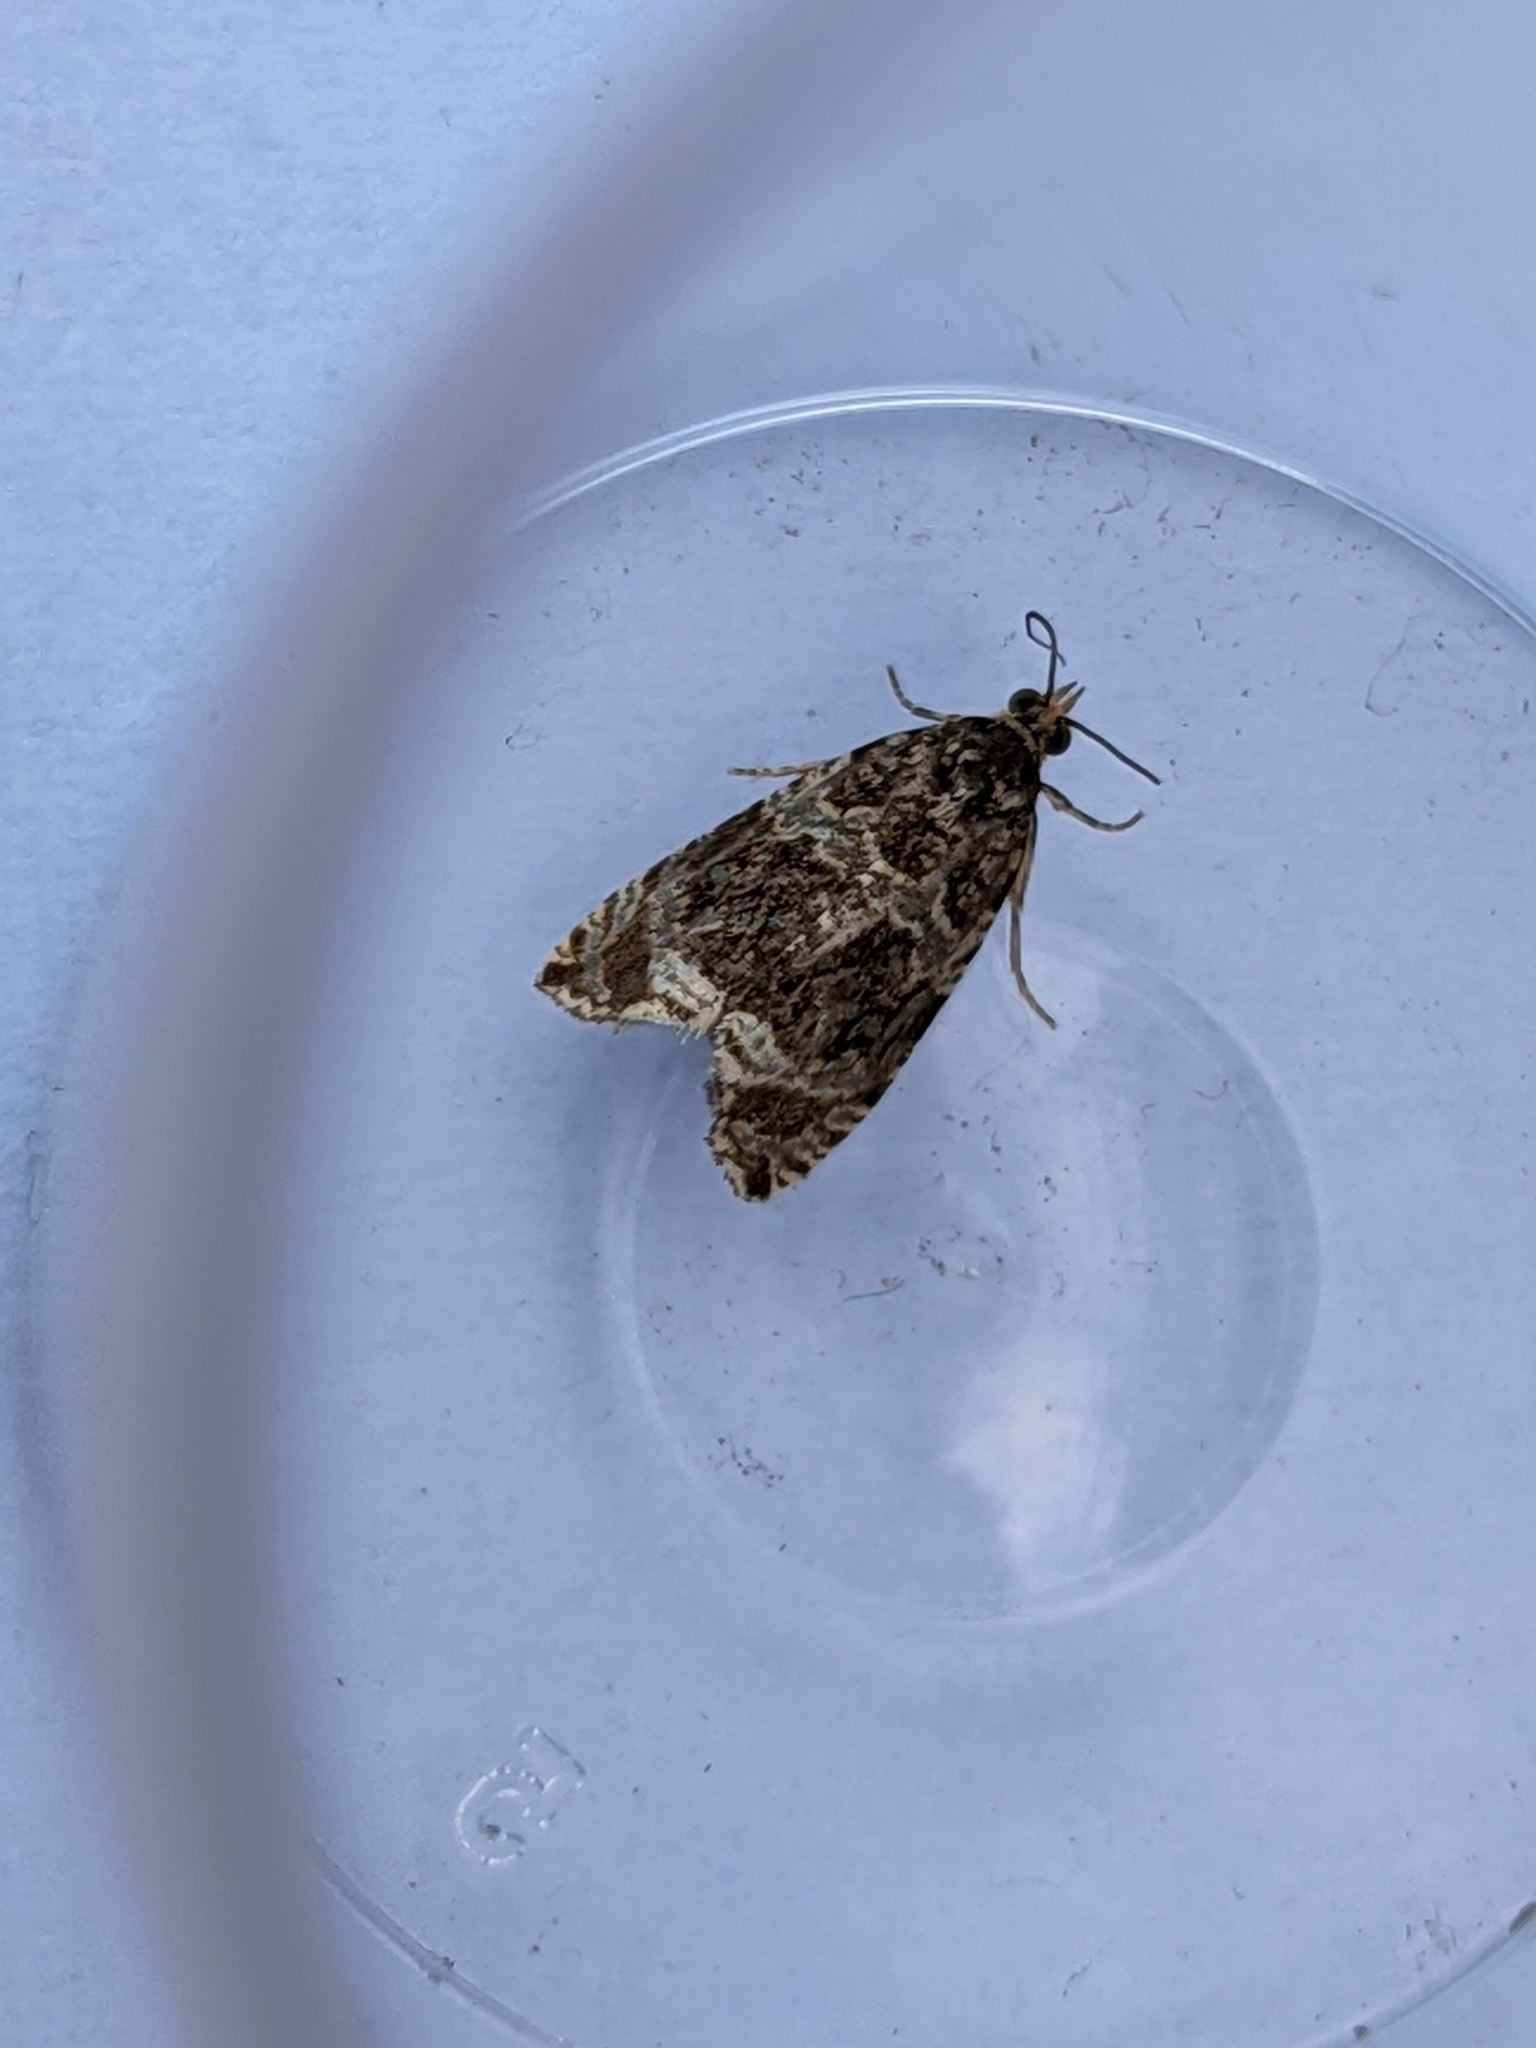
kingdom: Animalia
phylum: Arthropoda
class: Insecta
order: Lepidoptera
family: Tortricidae
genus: Syricoris
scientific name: Syricoris lacunana
